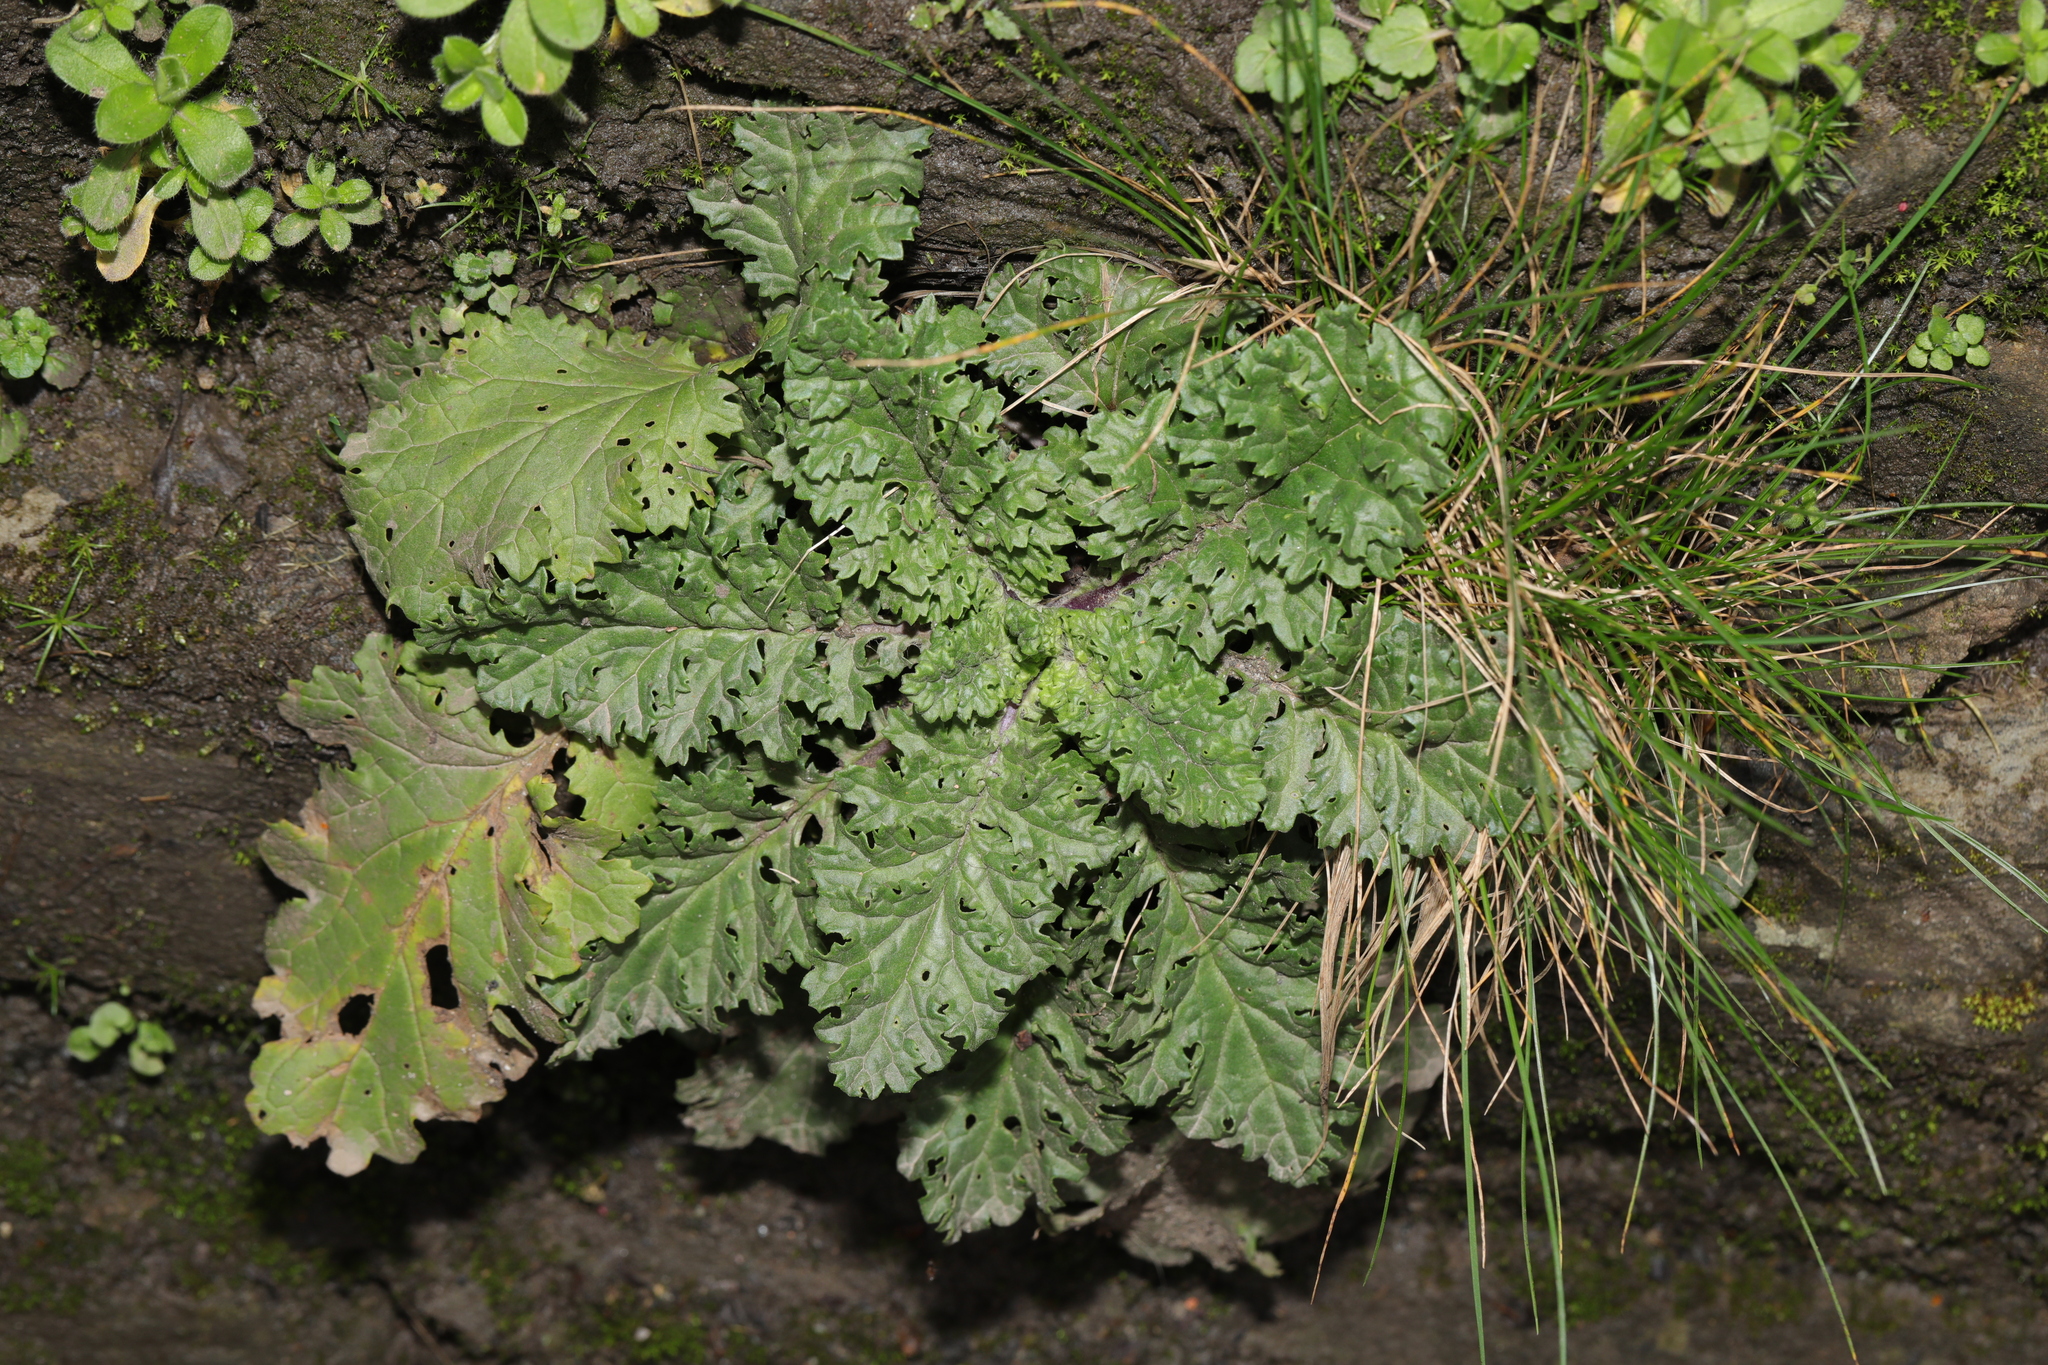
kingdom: Plantae
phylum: Tracheophyta
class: Magnoliopsida
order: Asterales
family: Asteraceae
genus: Jacobaea
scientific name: Jacobaea vulgaris
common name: Stinking willie
